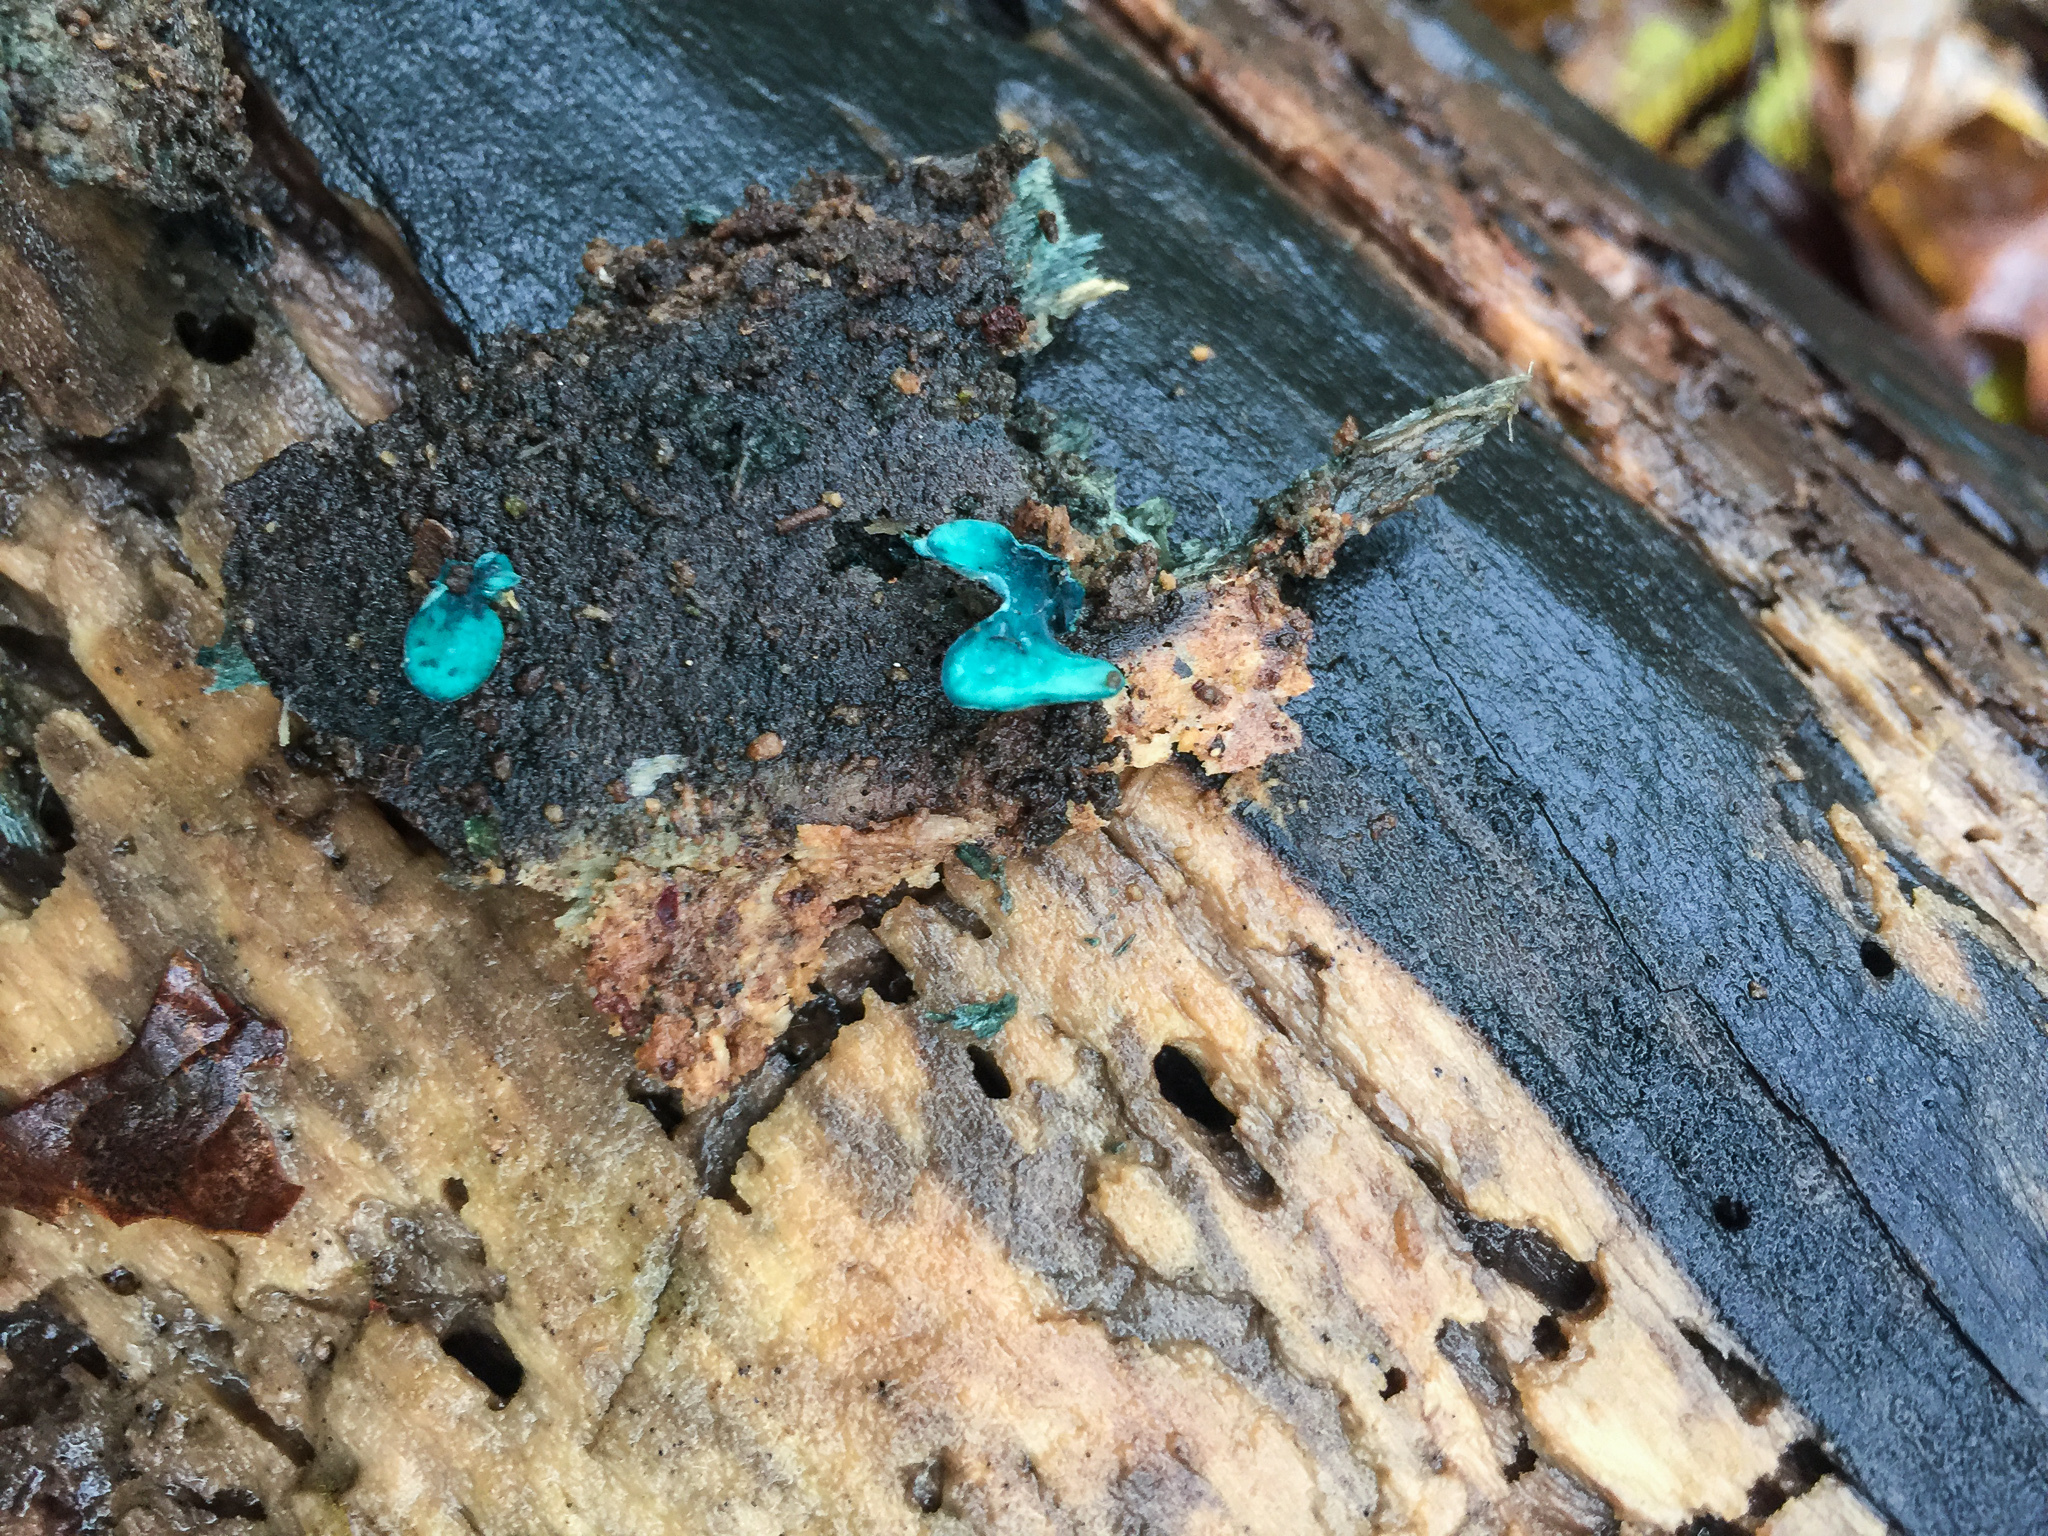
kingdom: Fungi
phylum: Ascomycota
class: Leotiomycetes
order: Helotiales
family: Chlorociboriaceae
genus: Chlorociboria
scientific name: Chlorociboria aeruginascens
